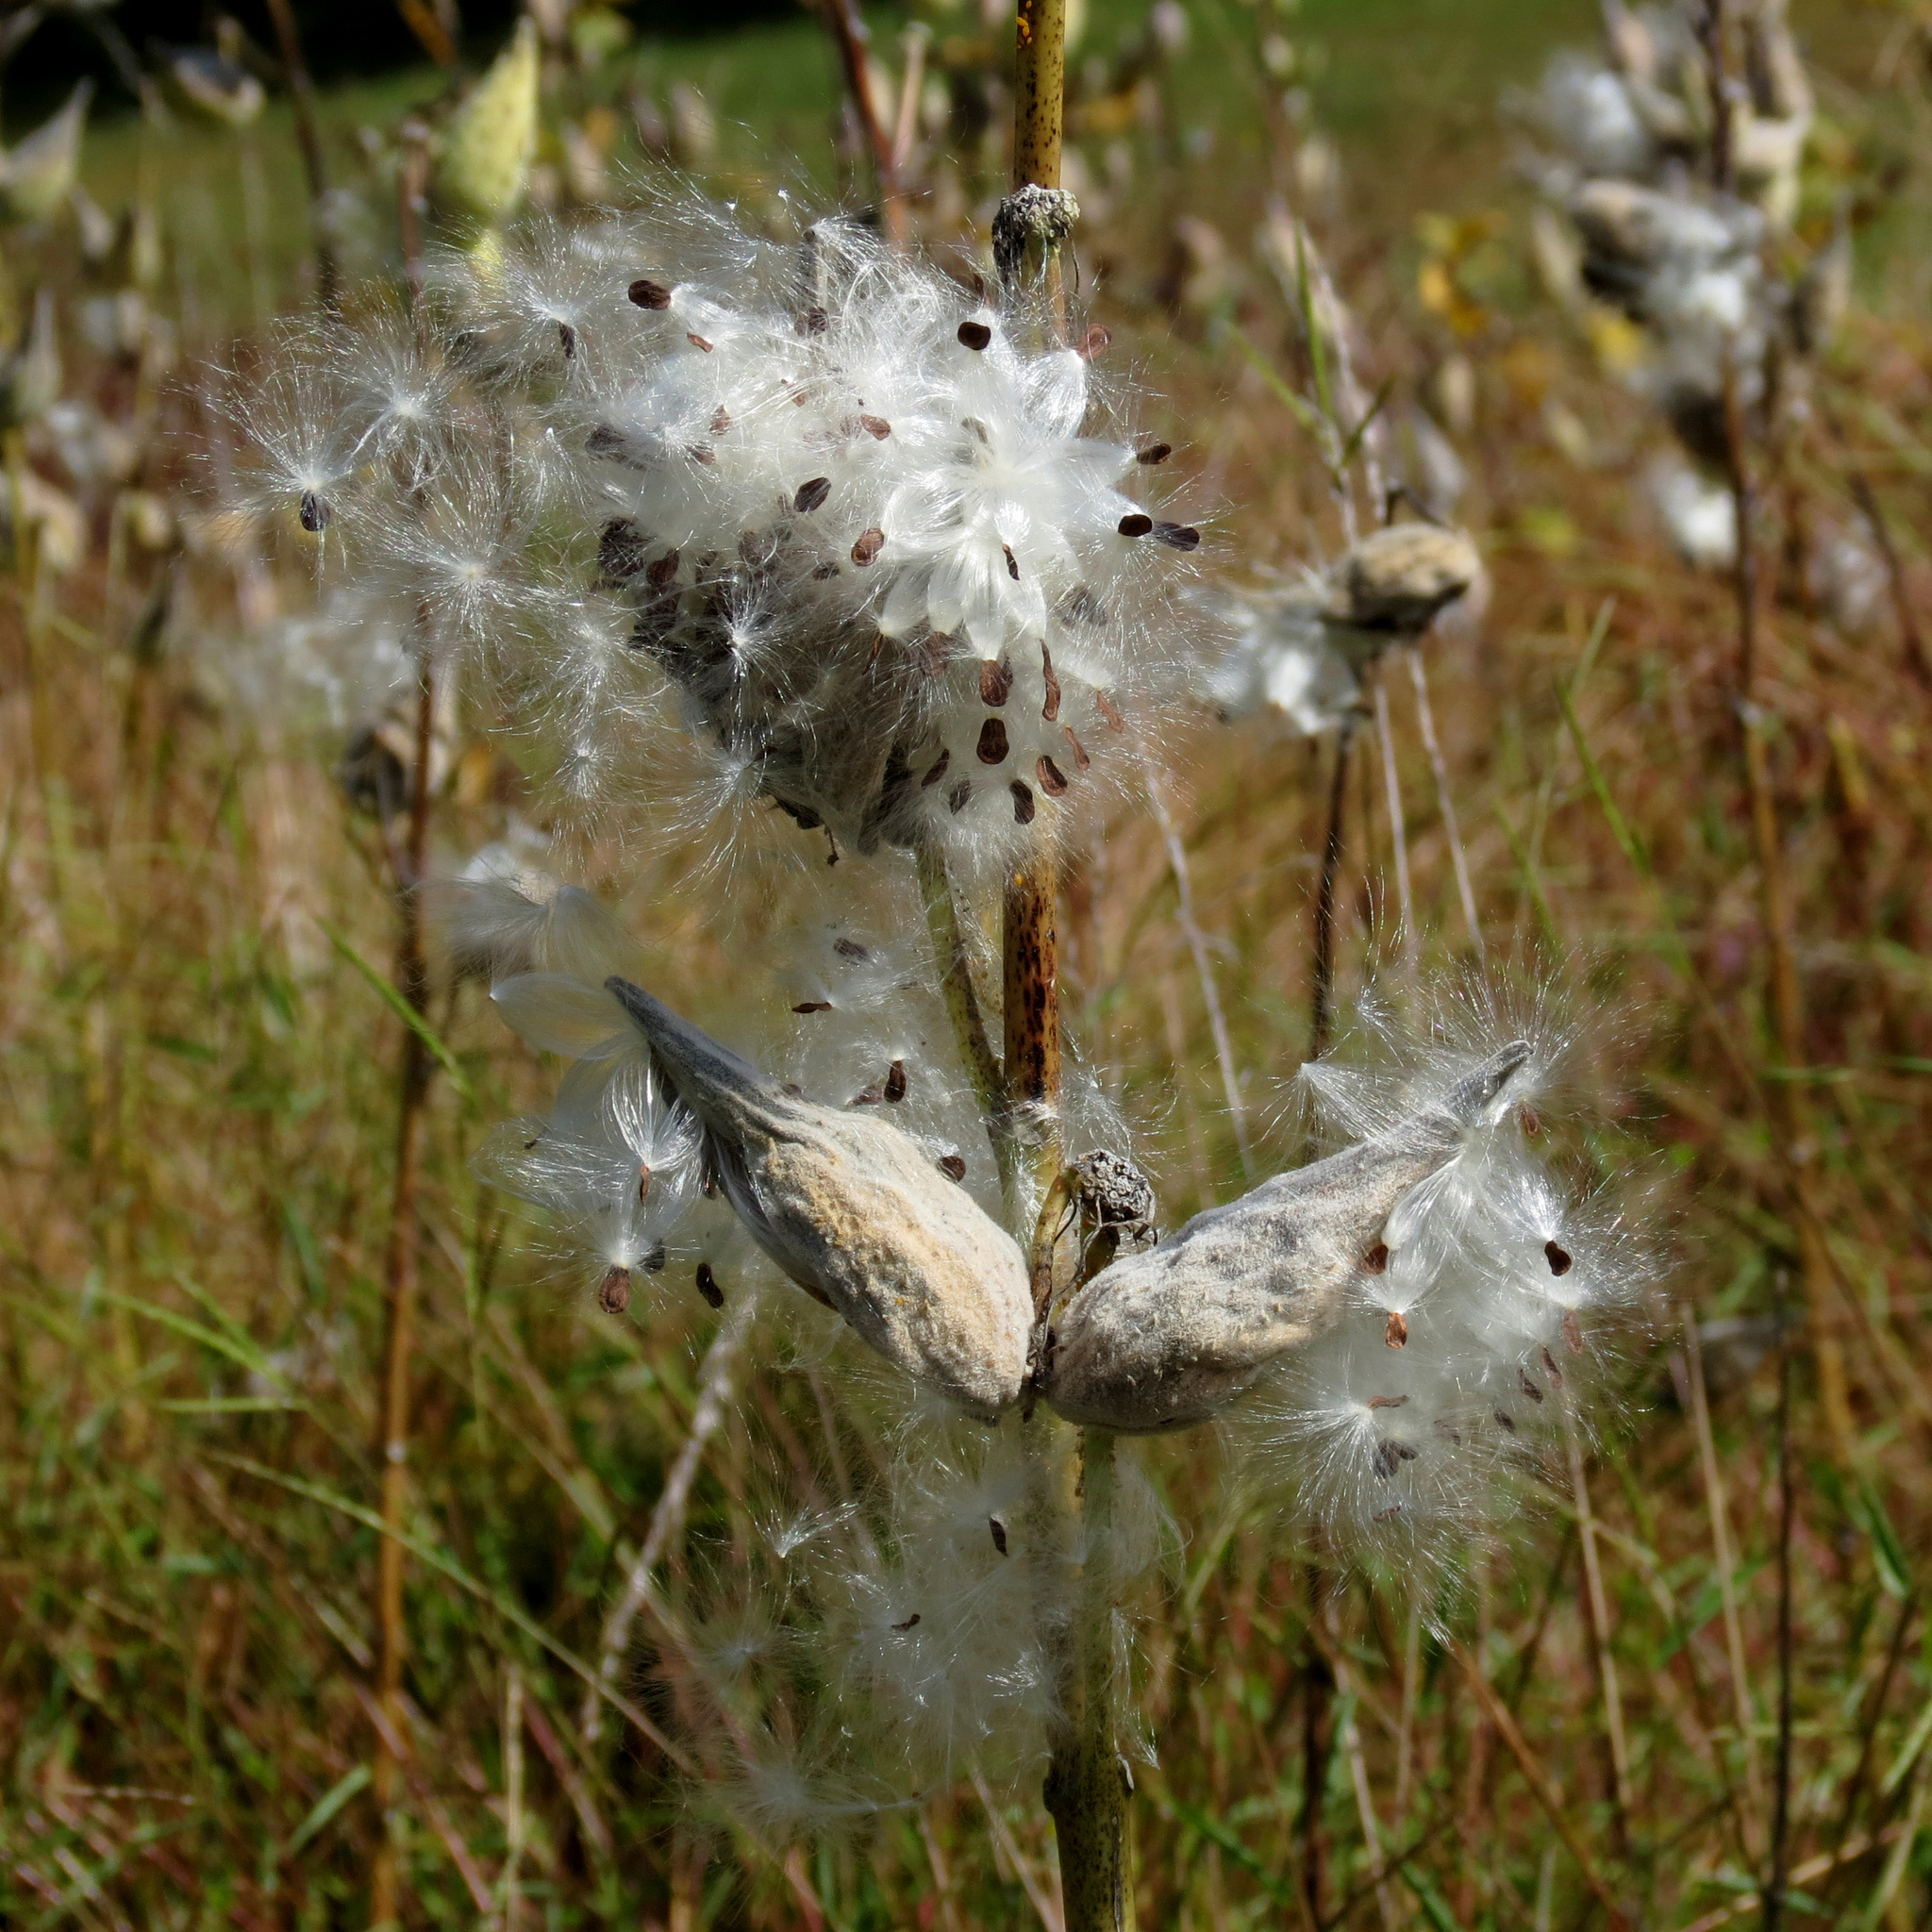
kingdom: Plantae
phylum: Tracheophyta
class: Magnoliopsida
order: Gentianales
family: Apocynaceae
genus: Asclepias
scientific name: Asclepias syriaca
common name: Common milkweed
